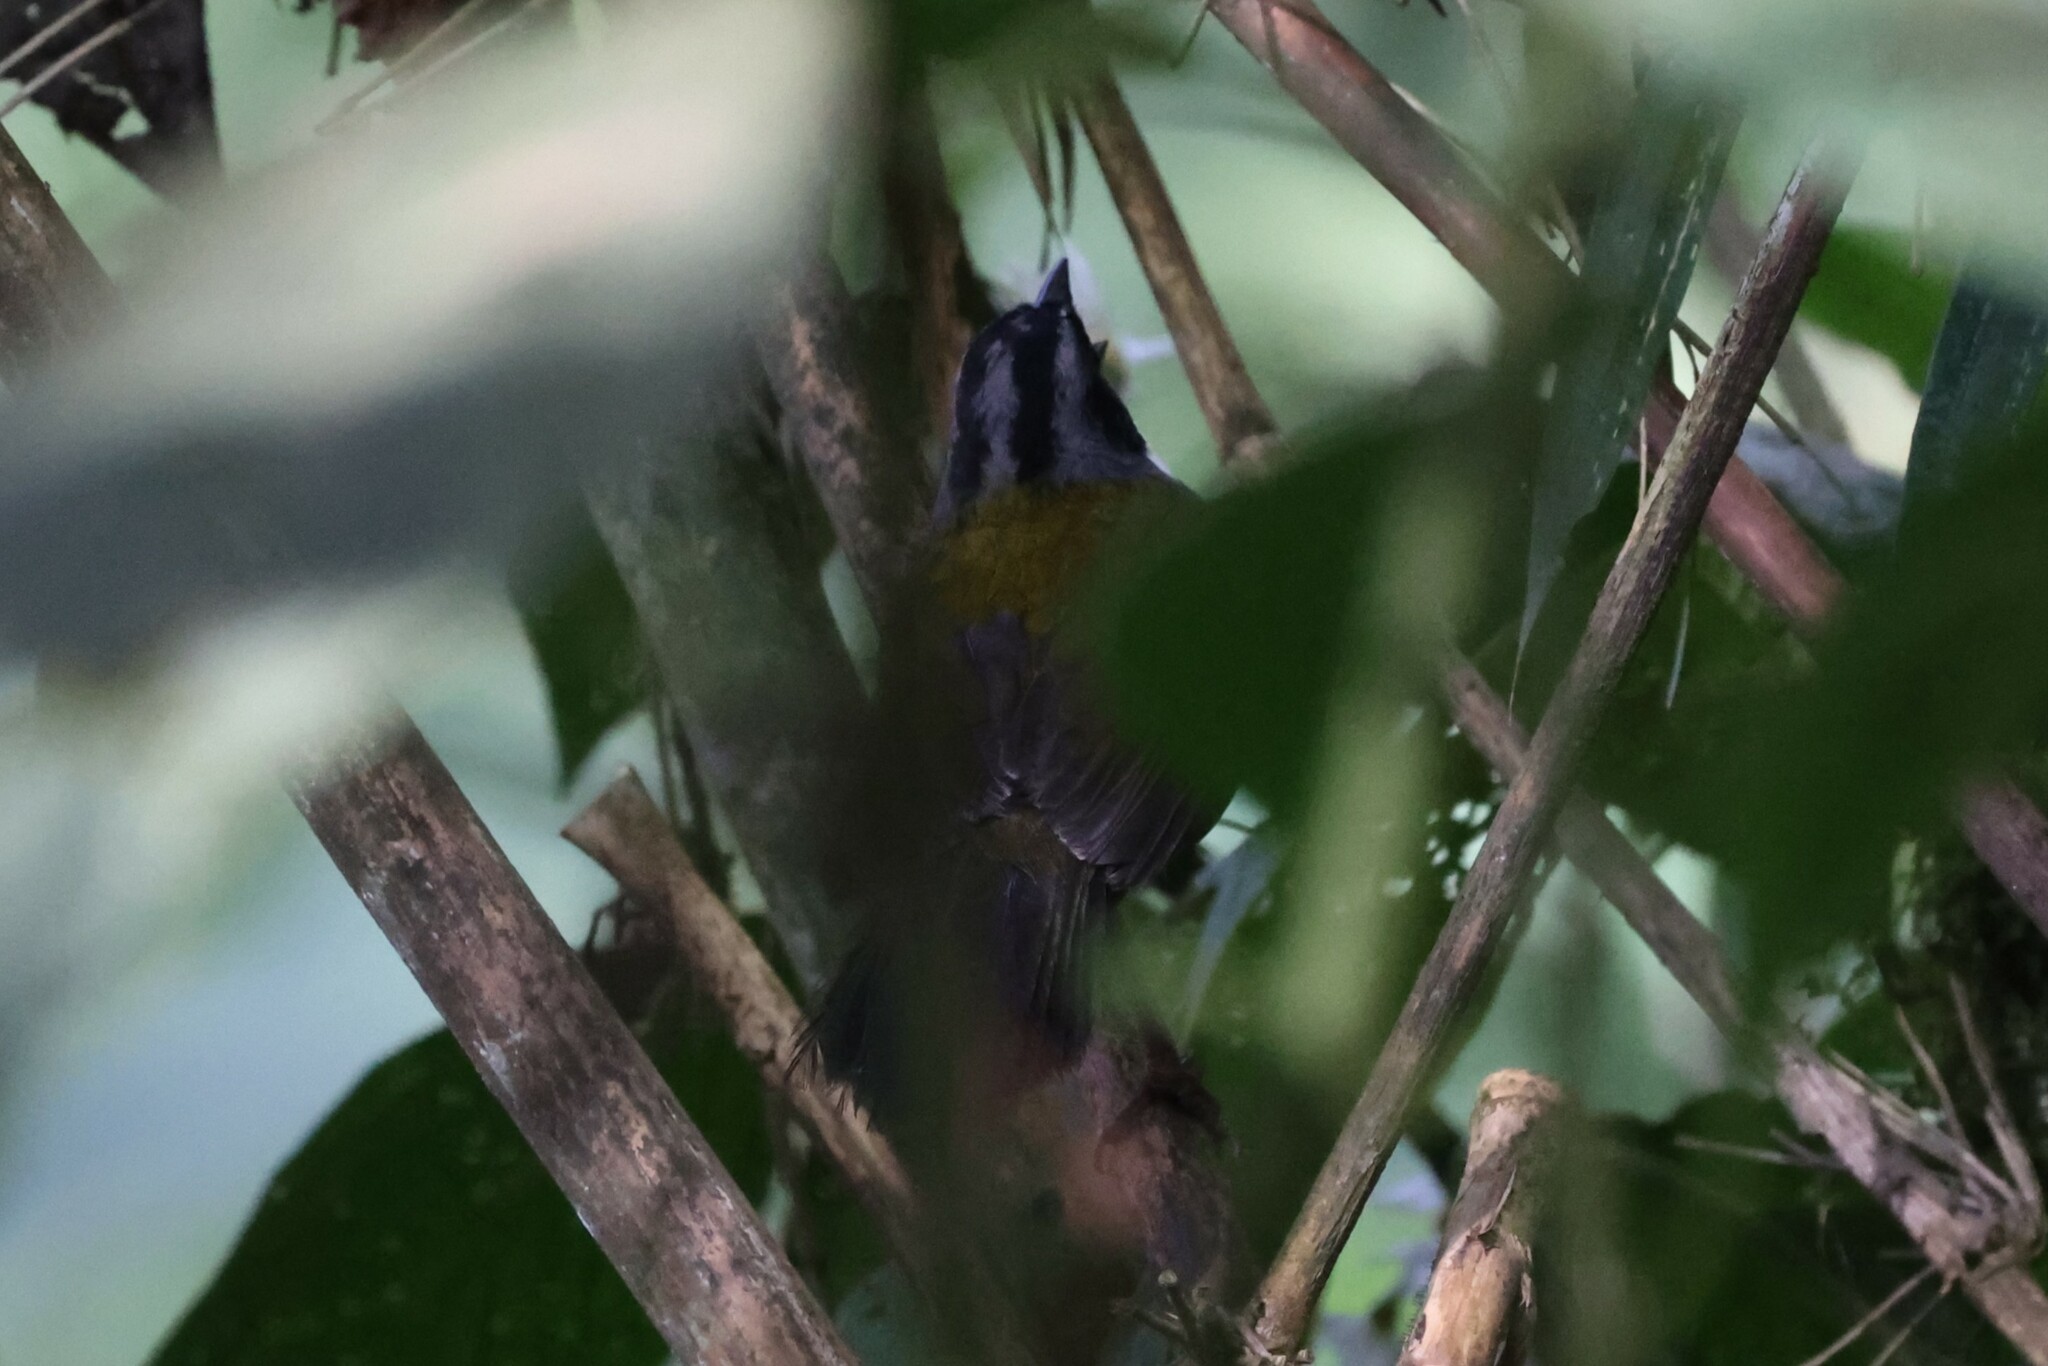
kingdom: Animalia
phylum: Chordata
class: Aves
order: Passeriformes
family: Passerellidae
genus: Arremon
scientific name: Arremon assimilis
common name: Grey-browed brushfinch
